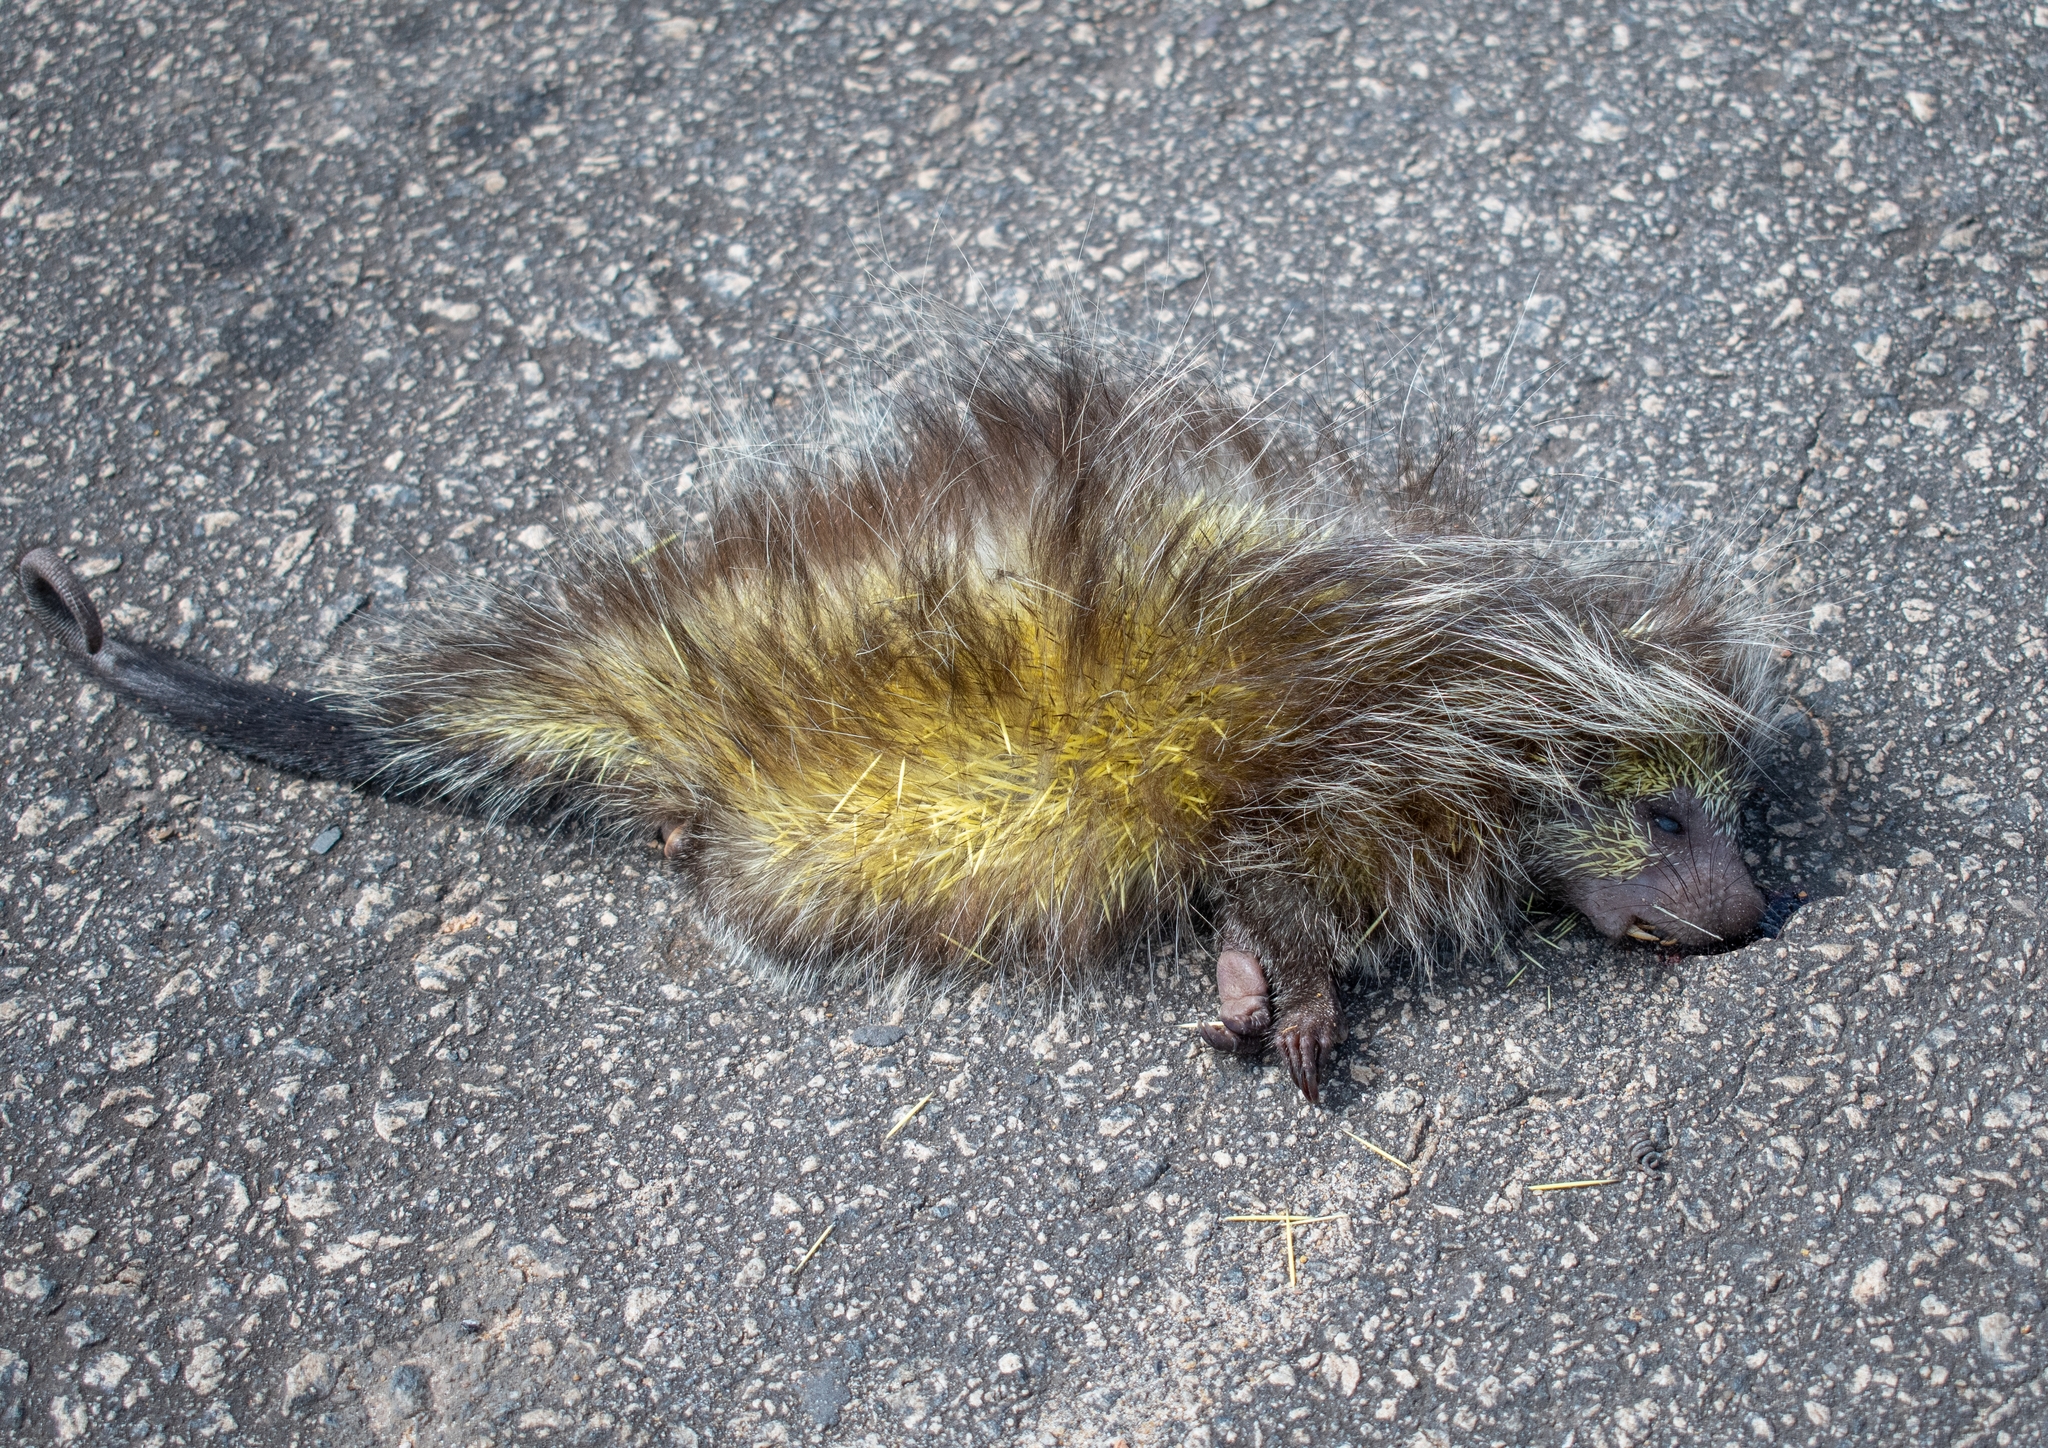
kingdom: Animalia
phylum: Chordata
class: Mammalia
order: Rodentia
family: Erethizontidae
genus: Sphiggurus
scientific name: Sphiggurus melanurus
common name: Black-tailed hairy dwarf porcupine
